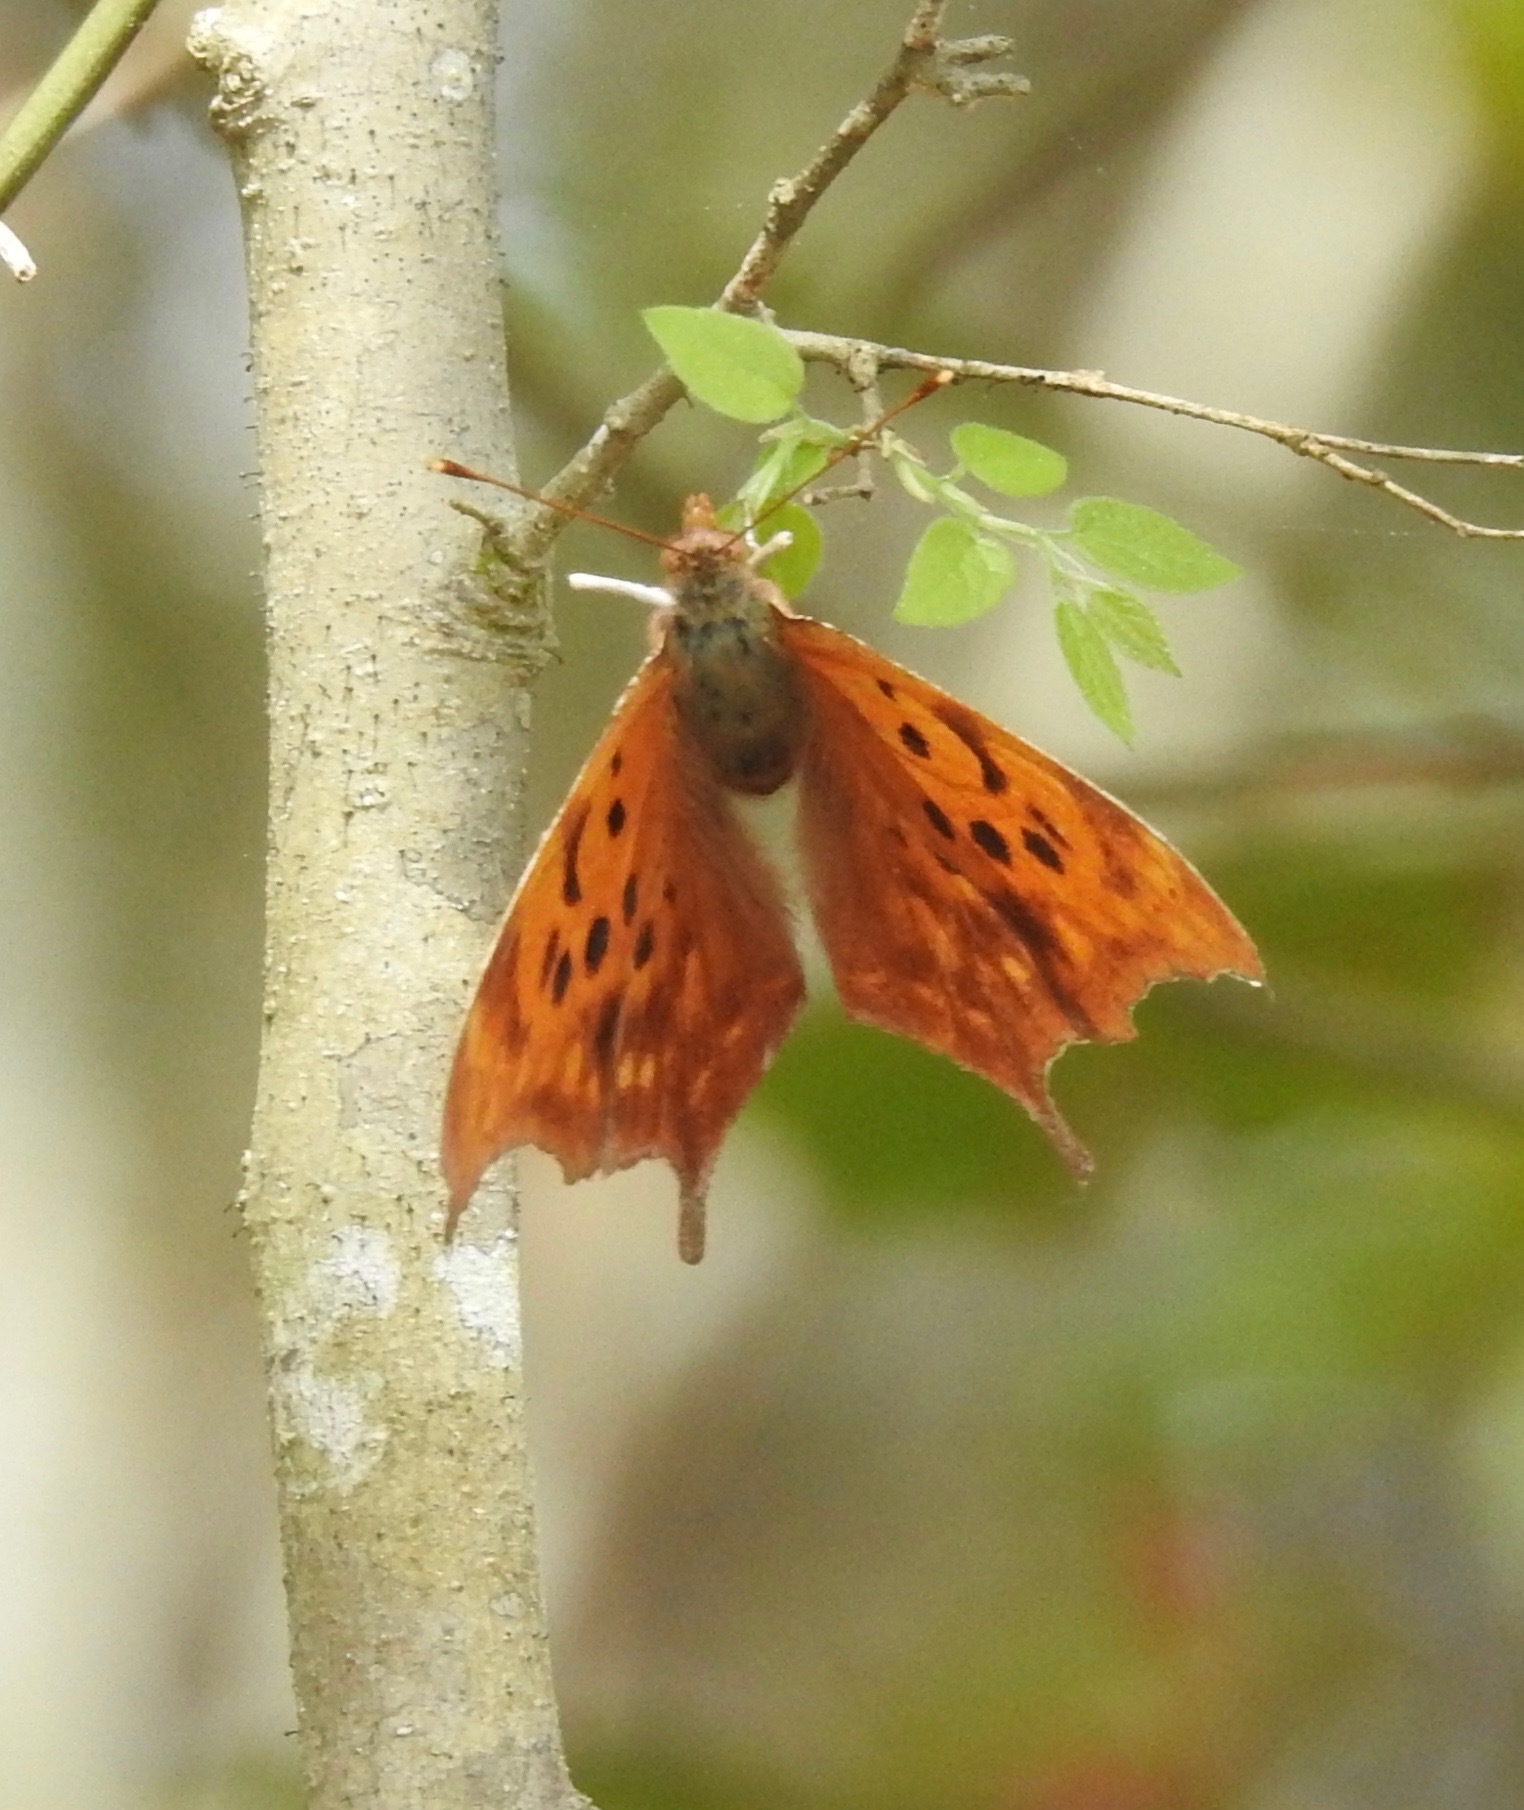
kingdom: Animalia
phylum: Arthropoda
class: Insecta
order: Lepidoptera
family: Nymphalidae
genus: Polygonia
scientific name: Polygonia interrogationis
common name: Question mark
